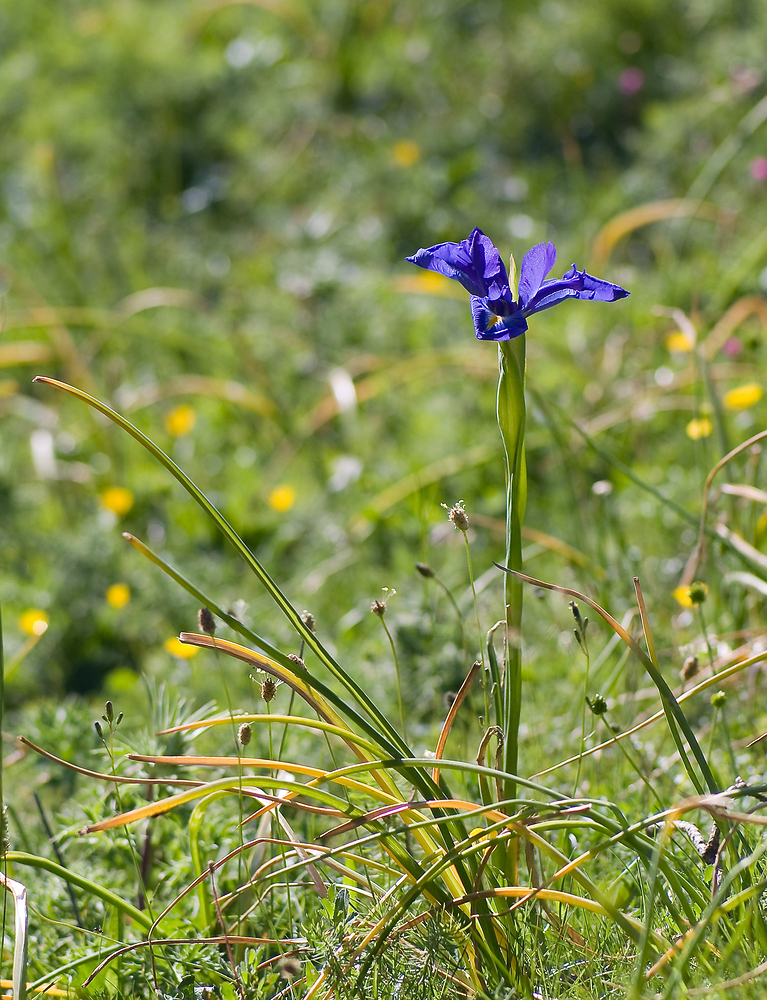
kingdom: Plantae
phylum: Tracheophyta
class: Liliopsida
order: Asparagales
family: Iridaceae
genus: Iris
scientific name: Iris
